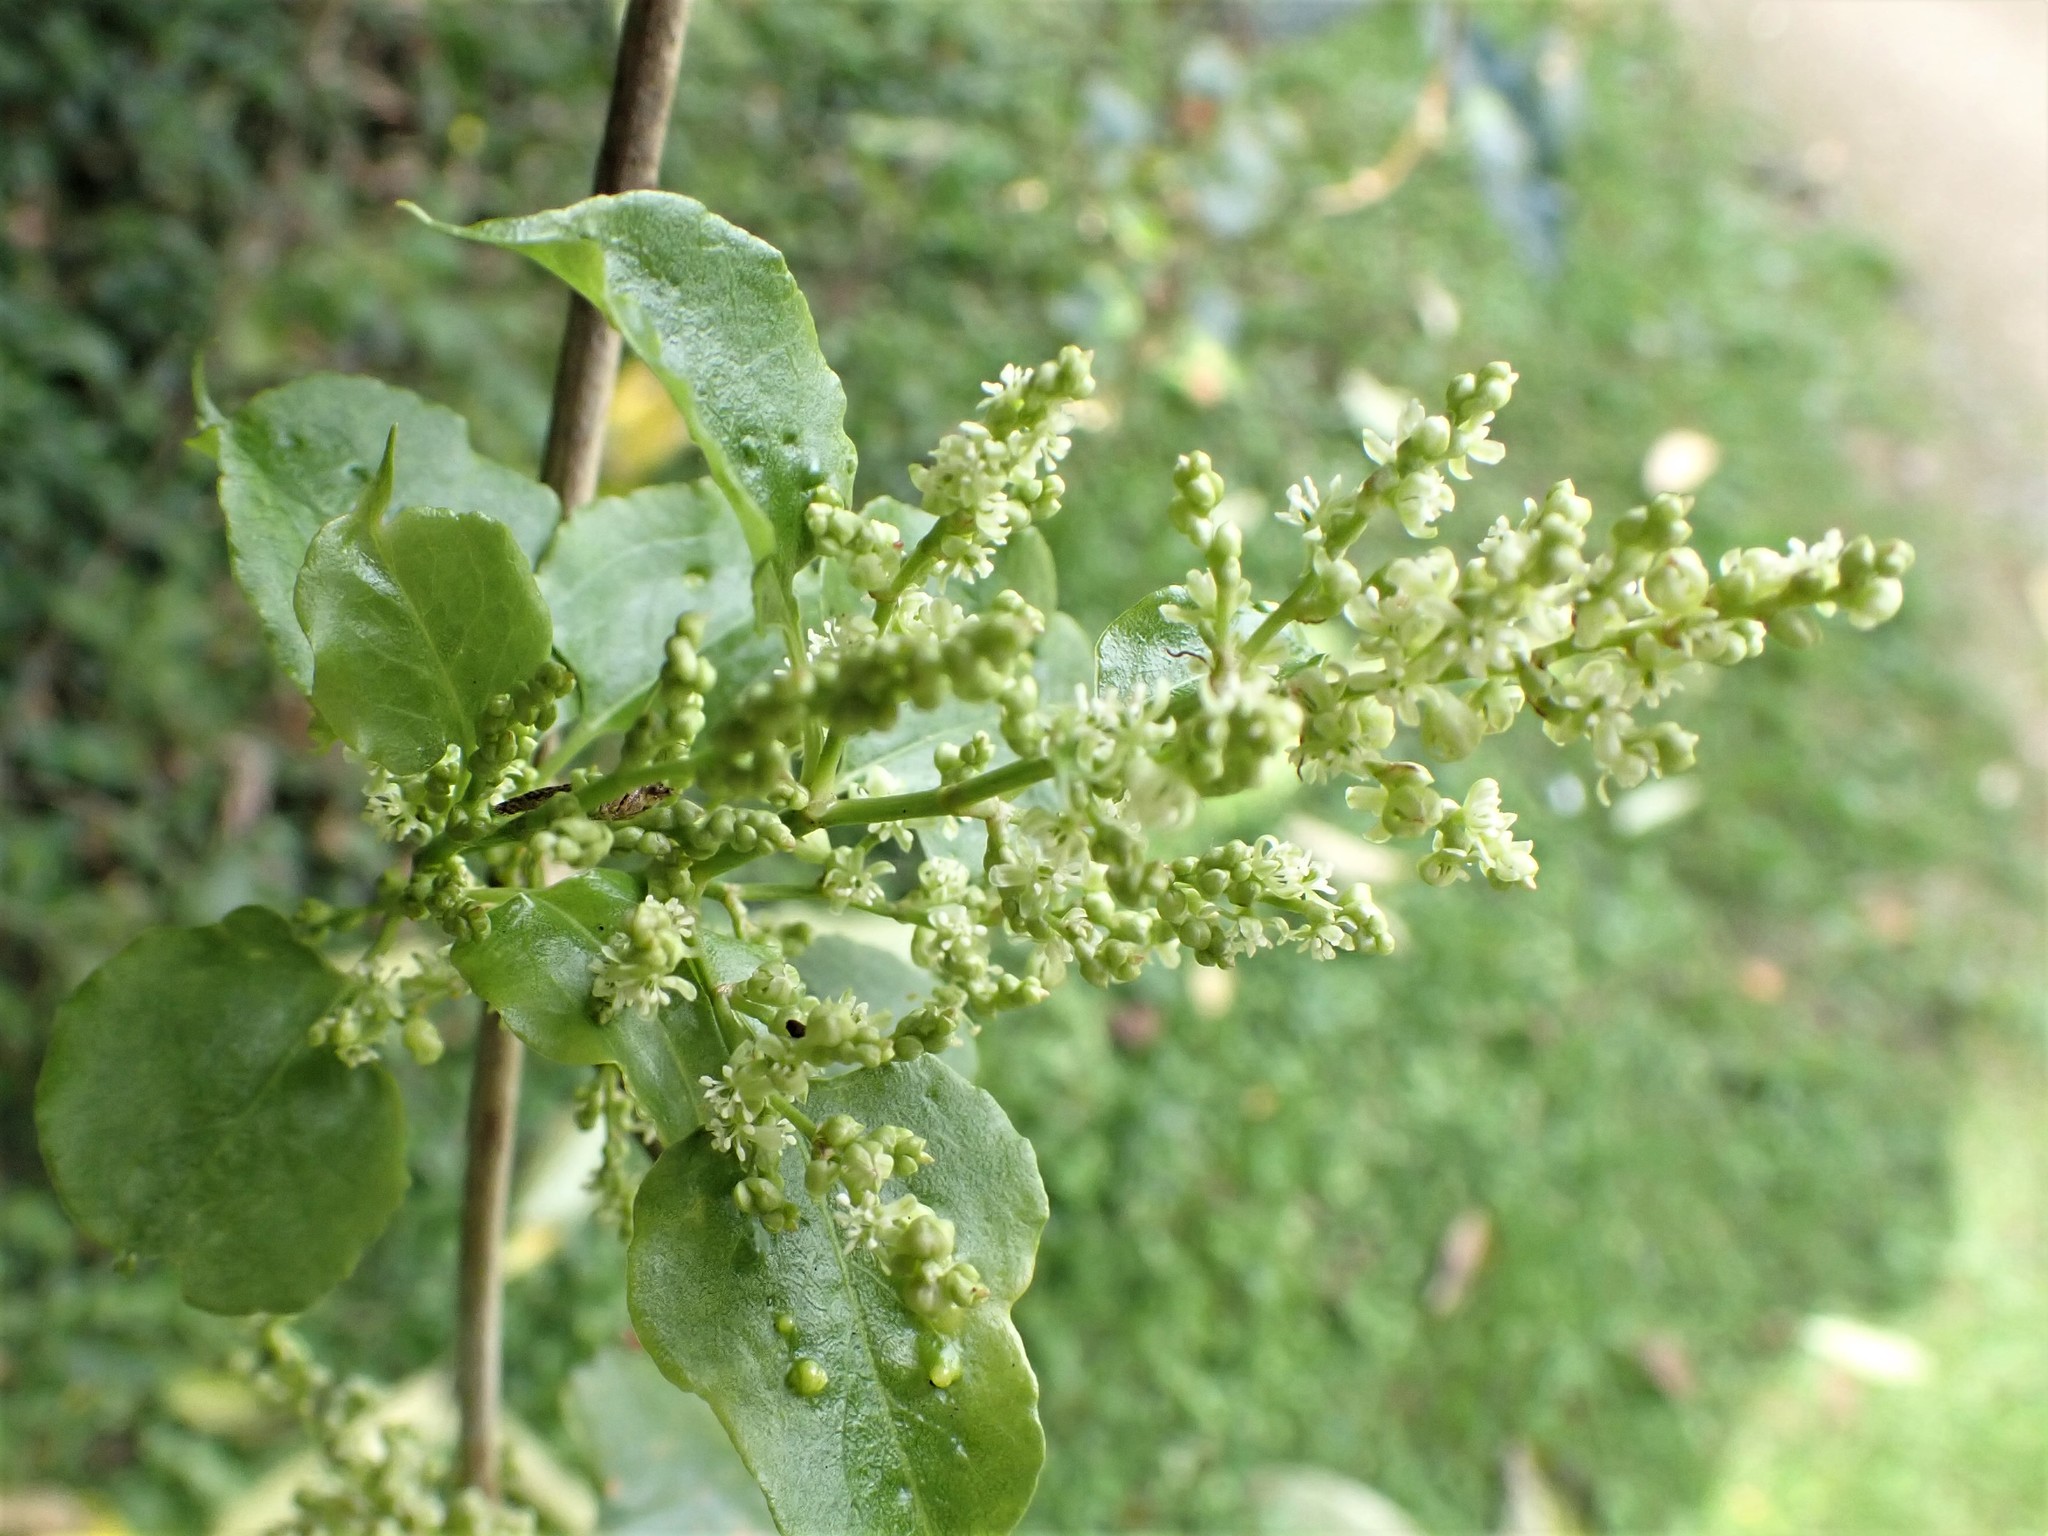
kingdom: Plantae
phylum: Tracheophyta
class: Magnoliopsida
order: Caryophyllales
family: Polygonaceae
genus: Muehlenbeckia
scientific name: Muehlenbeckia australis
